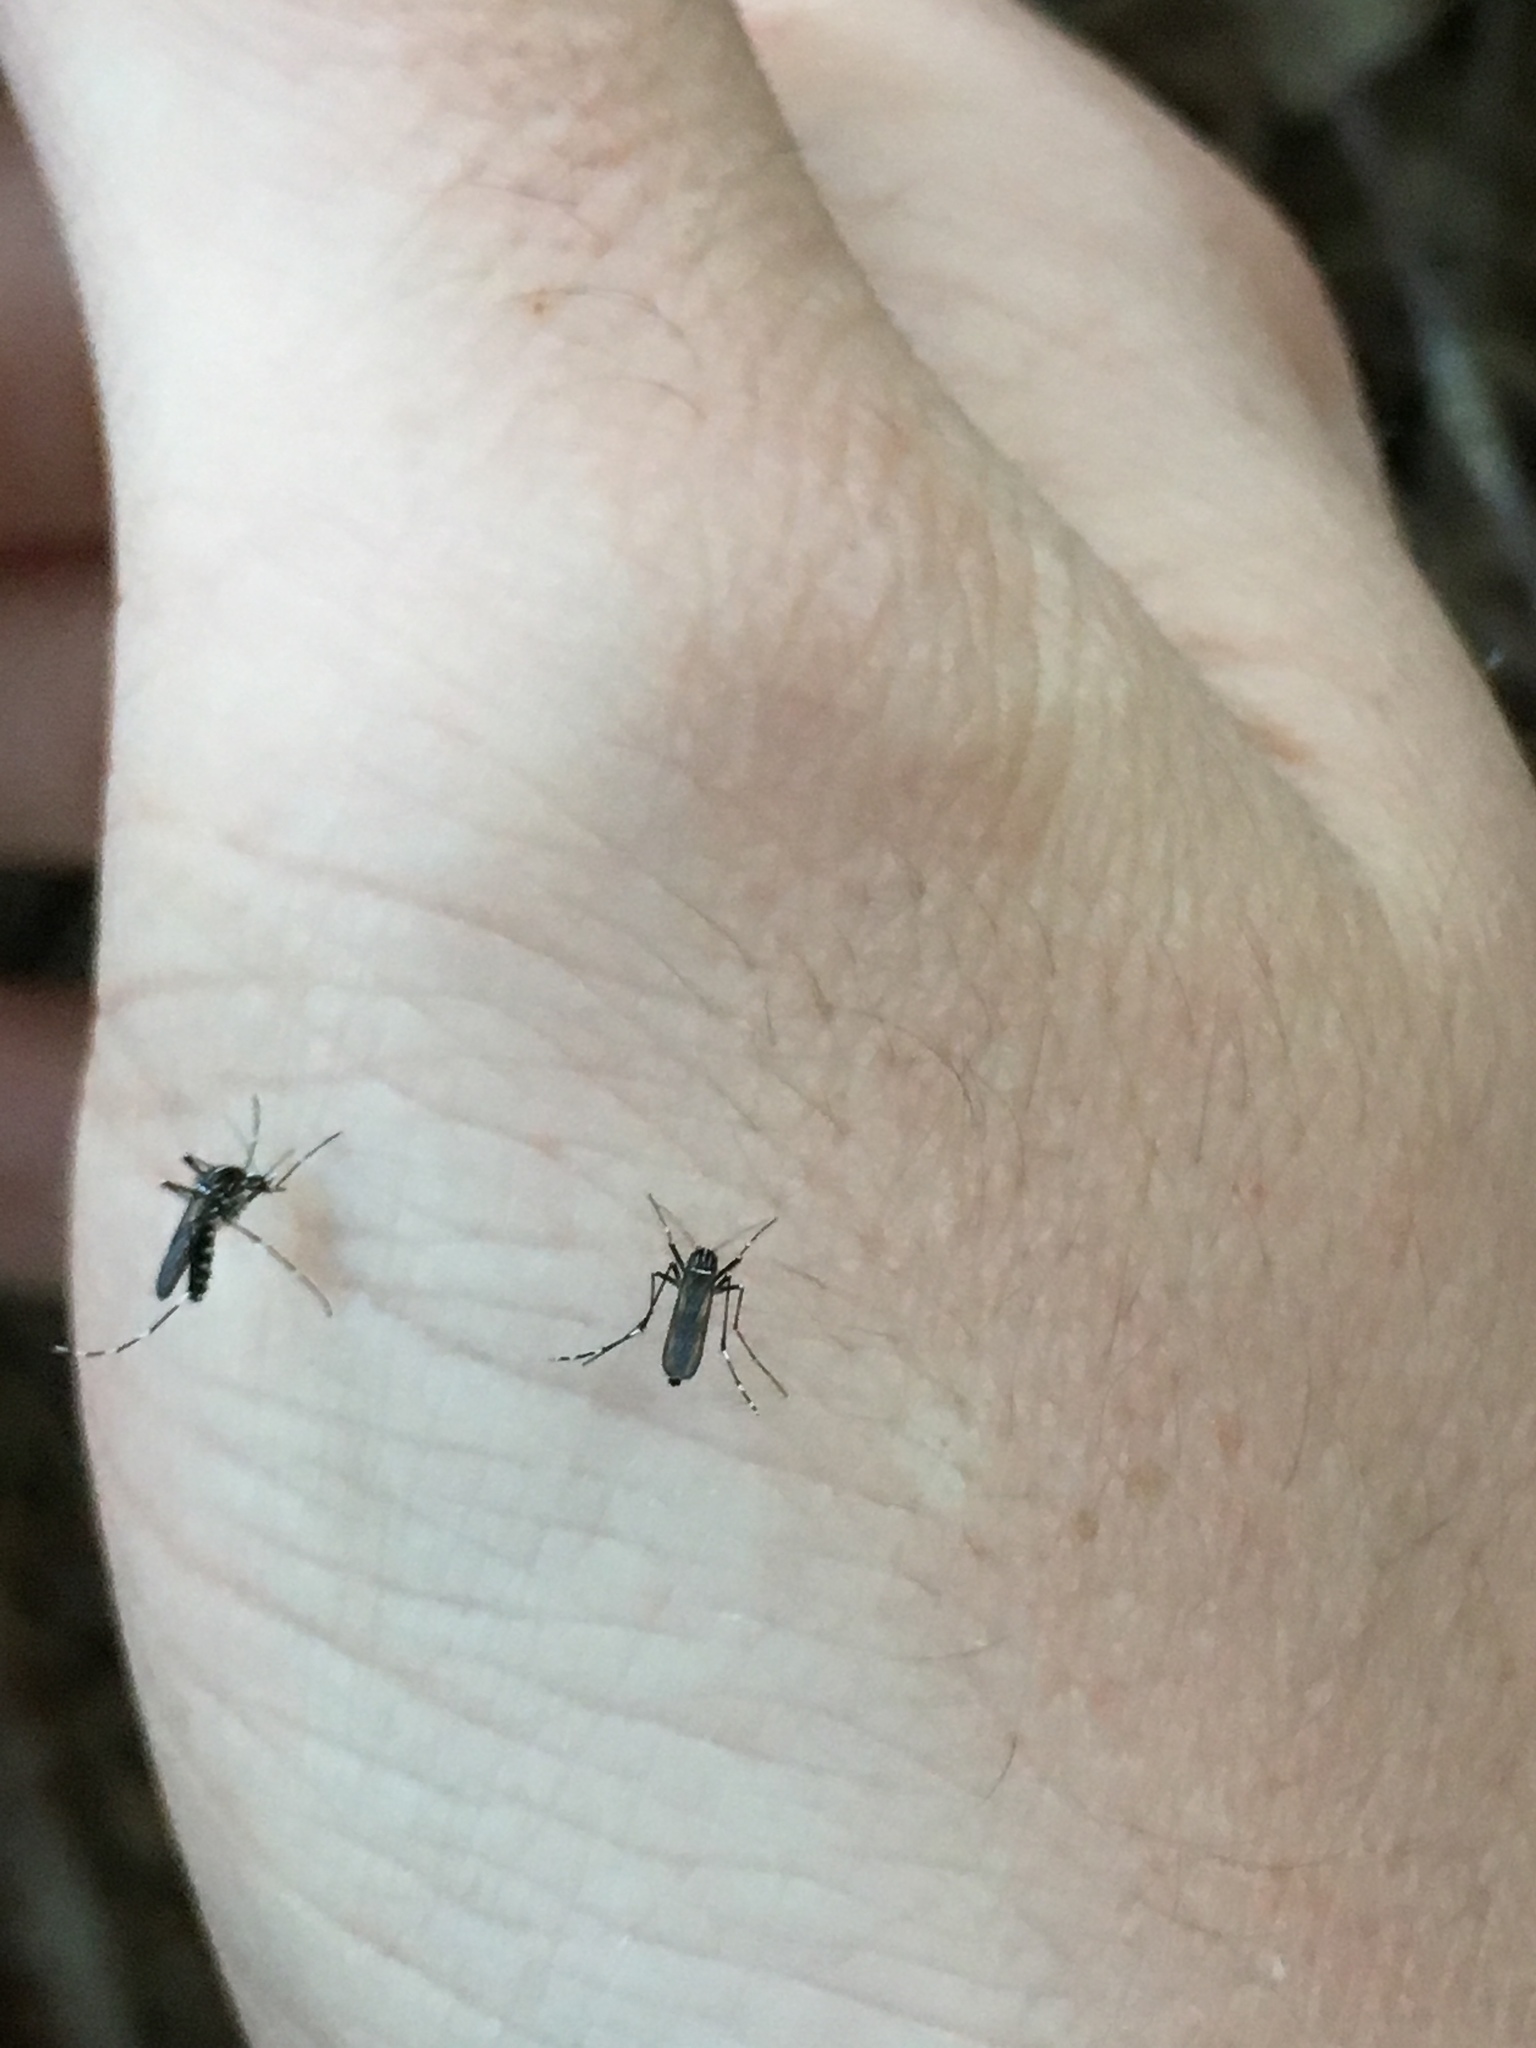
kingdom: Animalia
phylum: Arthropoda
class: Insecta
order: Diptera
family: Culicidae
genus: Aedes
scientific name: Aedes albopictus
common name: Tiger mosquito
